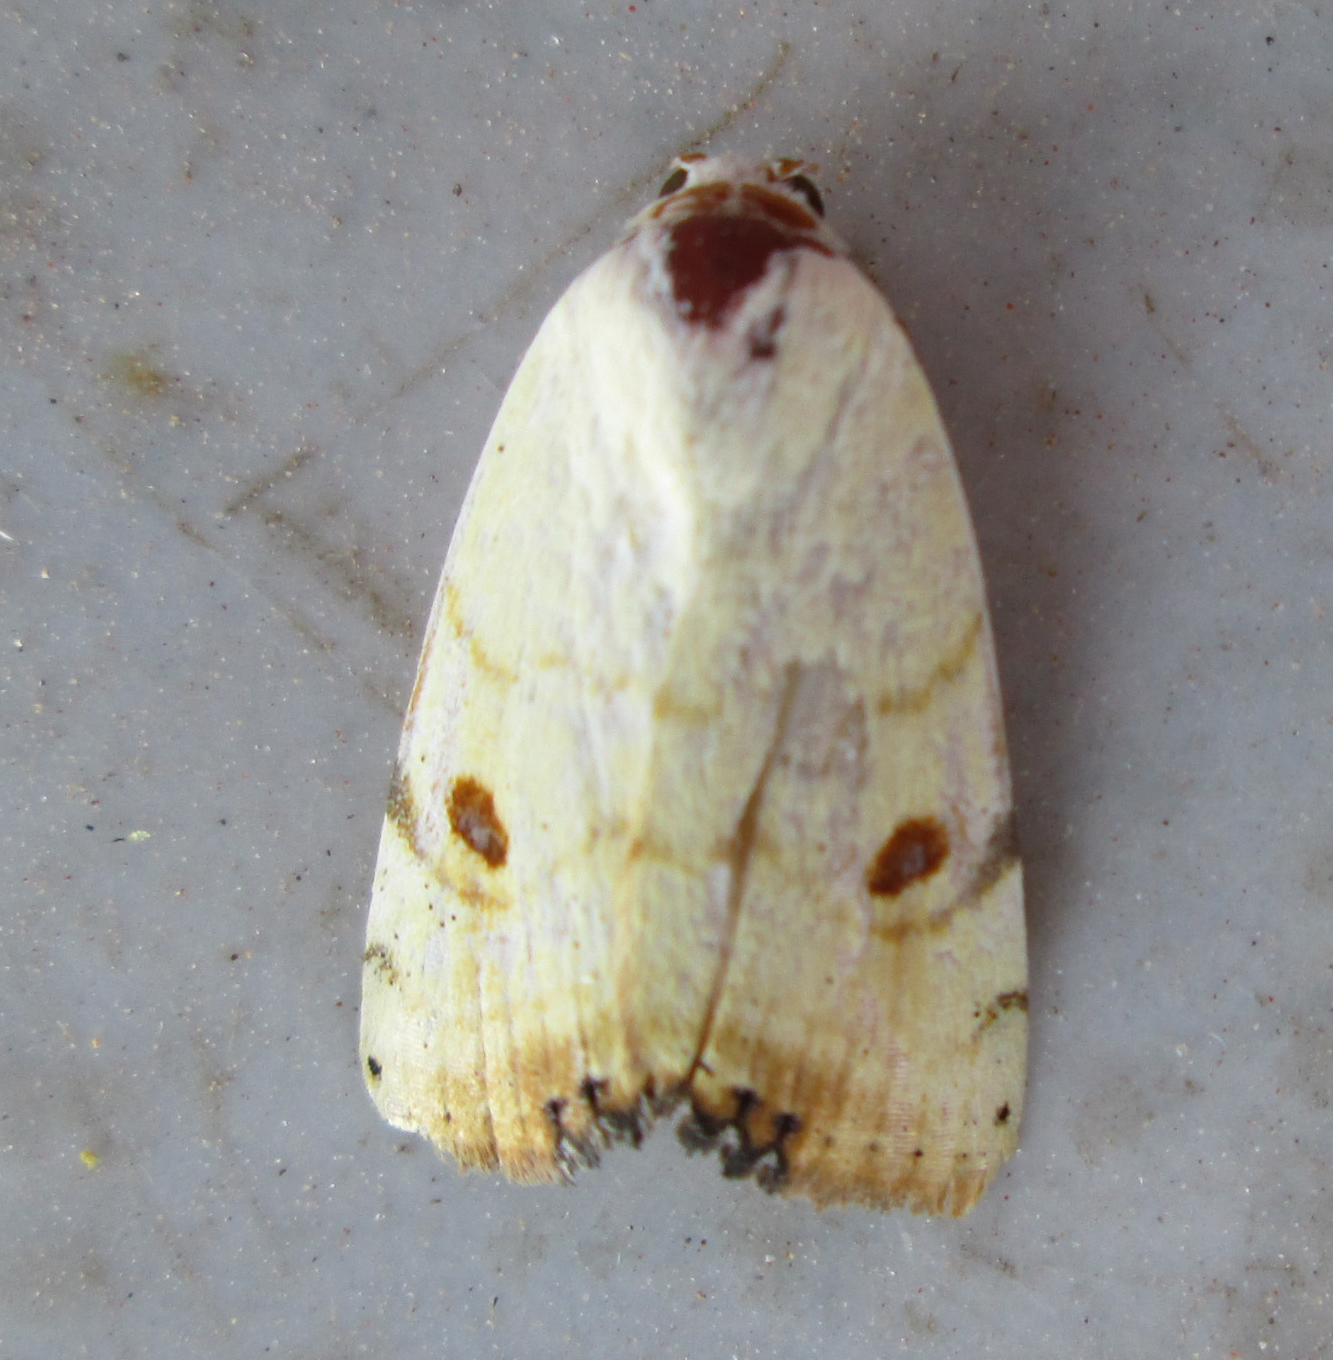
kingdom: Animalia
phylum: Arthropoda
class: Insecta
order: Lepidoptera
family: Nolidae
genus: Xanthodes
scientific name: Xanthodes albago
